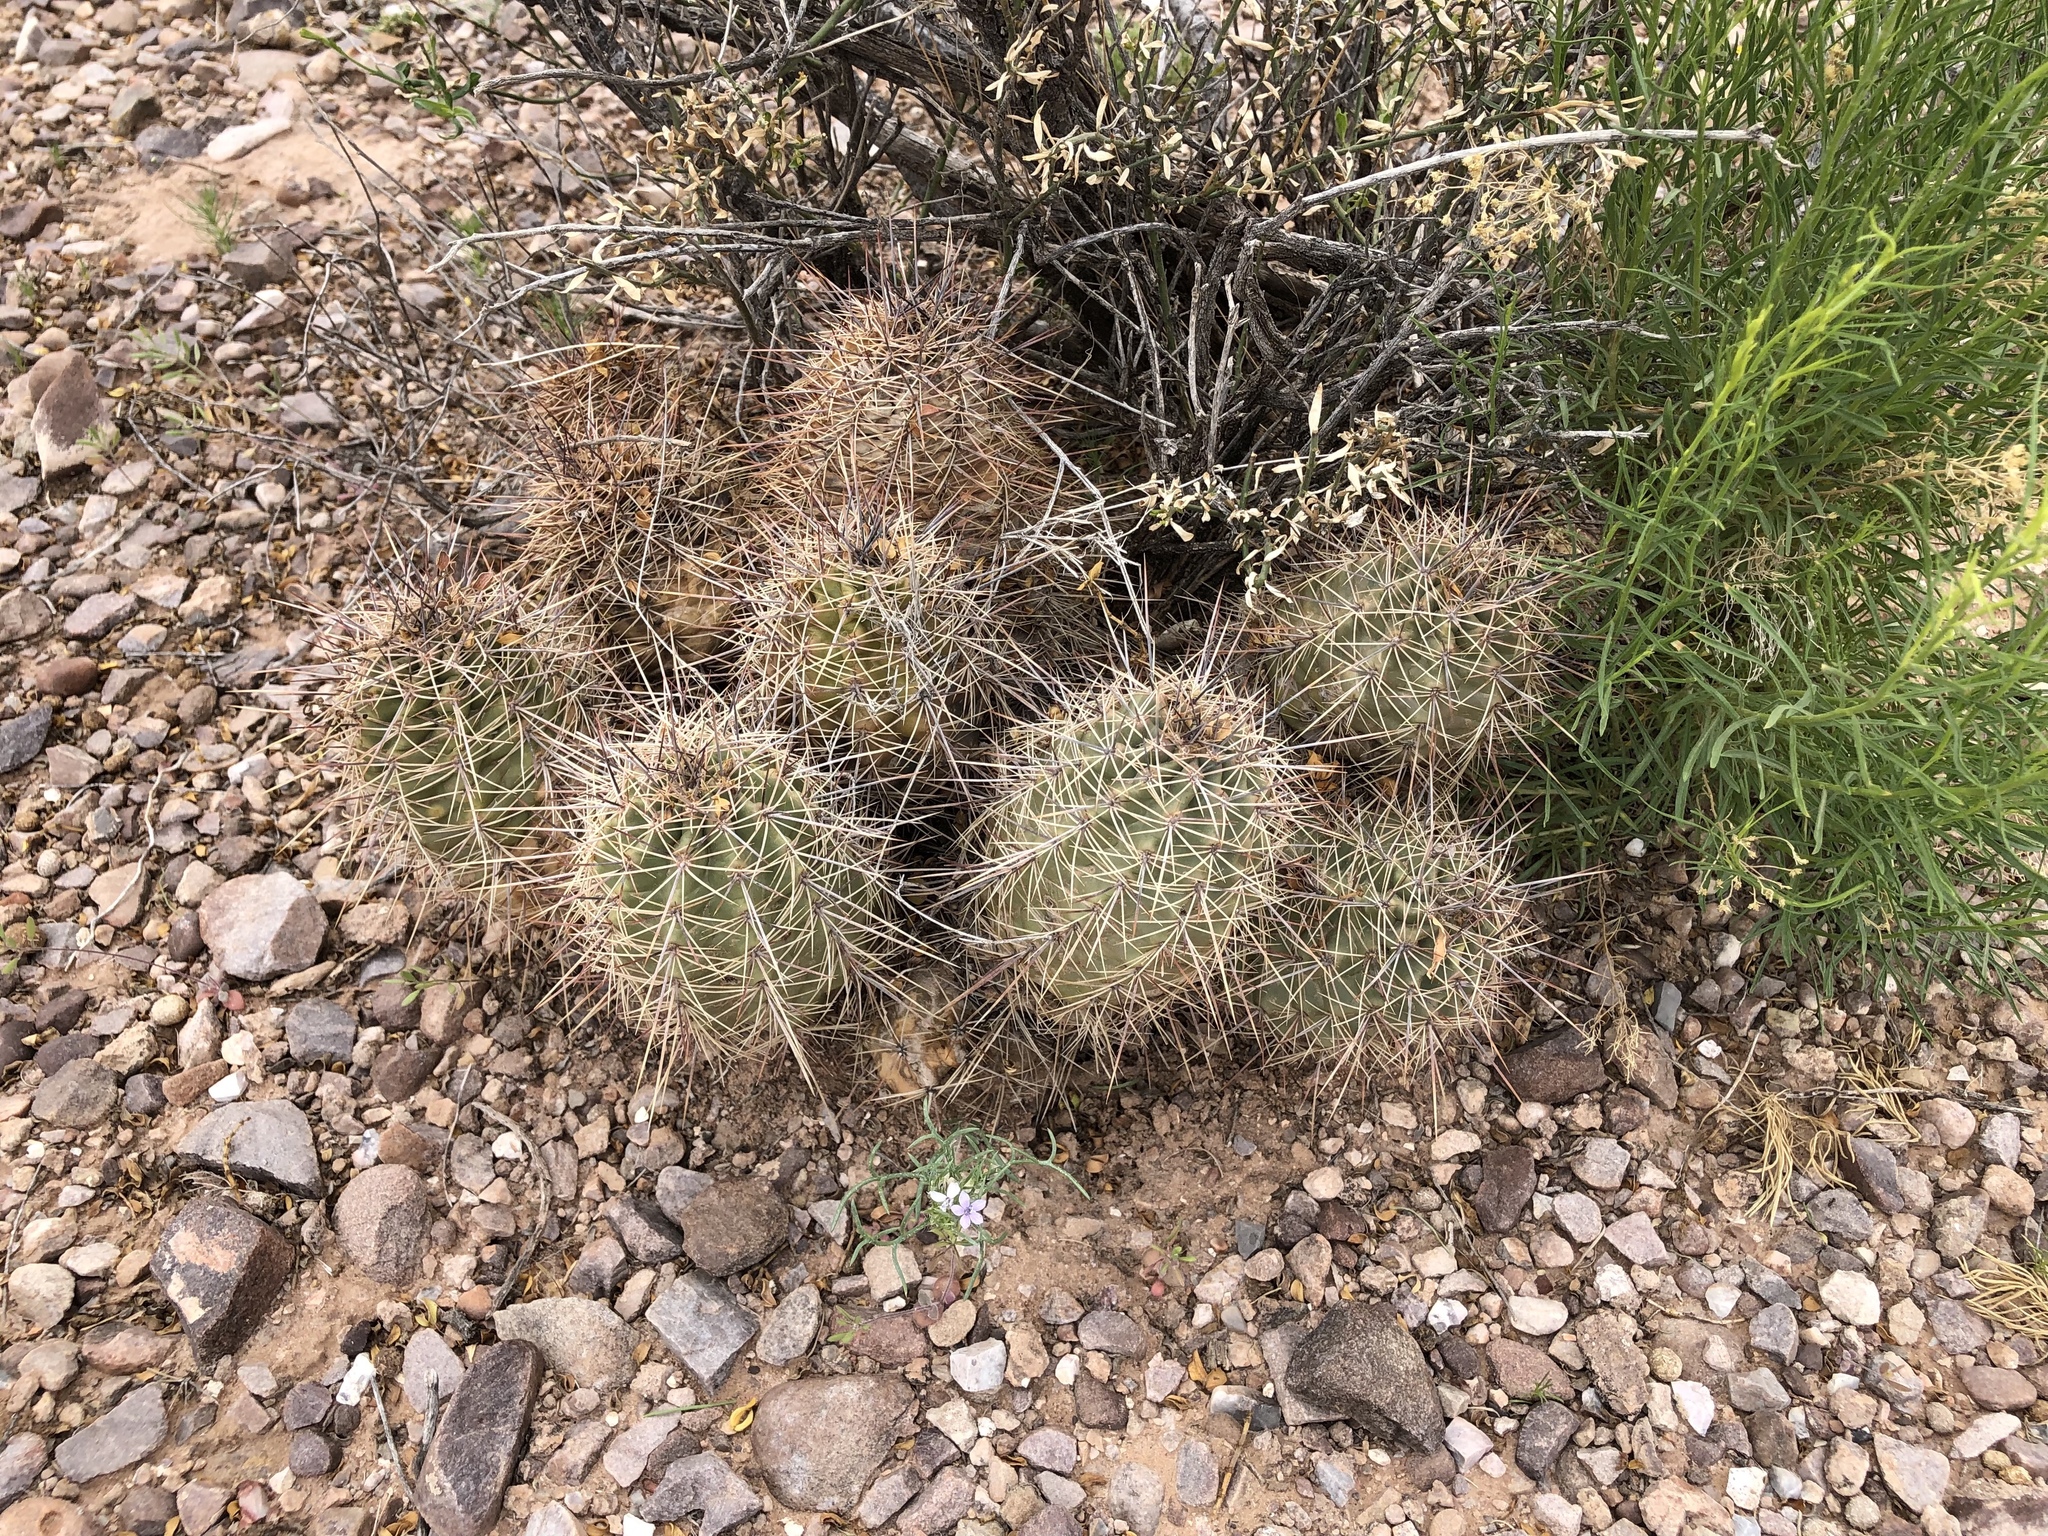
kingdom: Plantae
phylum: Tracheophyta
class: Magnoliopsida
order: Caryophyllales
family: Cactaceae
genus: Echinocereus
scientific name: Echinocereus coccineus
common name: Scarlet hedgehog cactus
